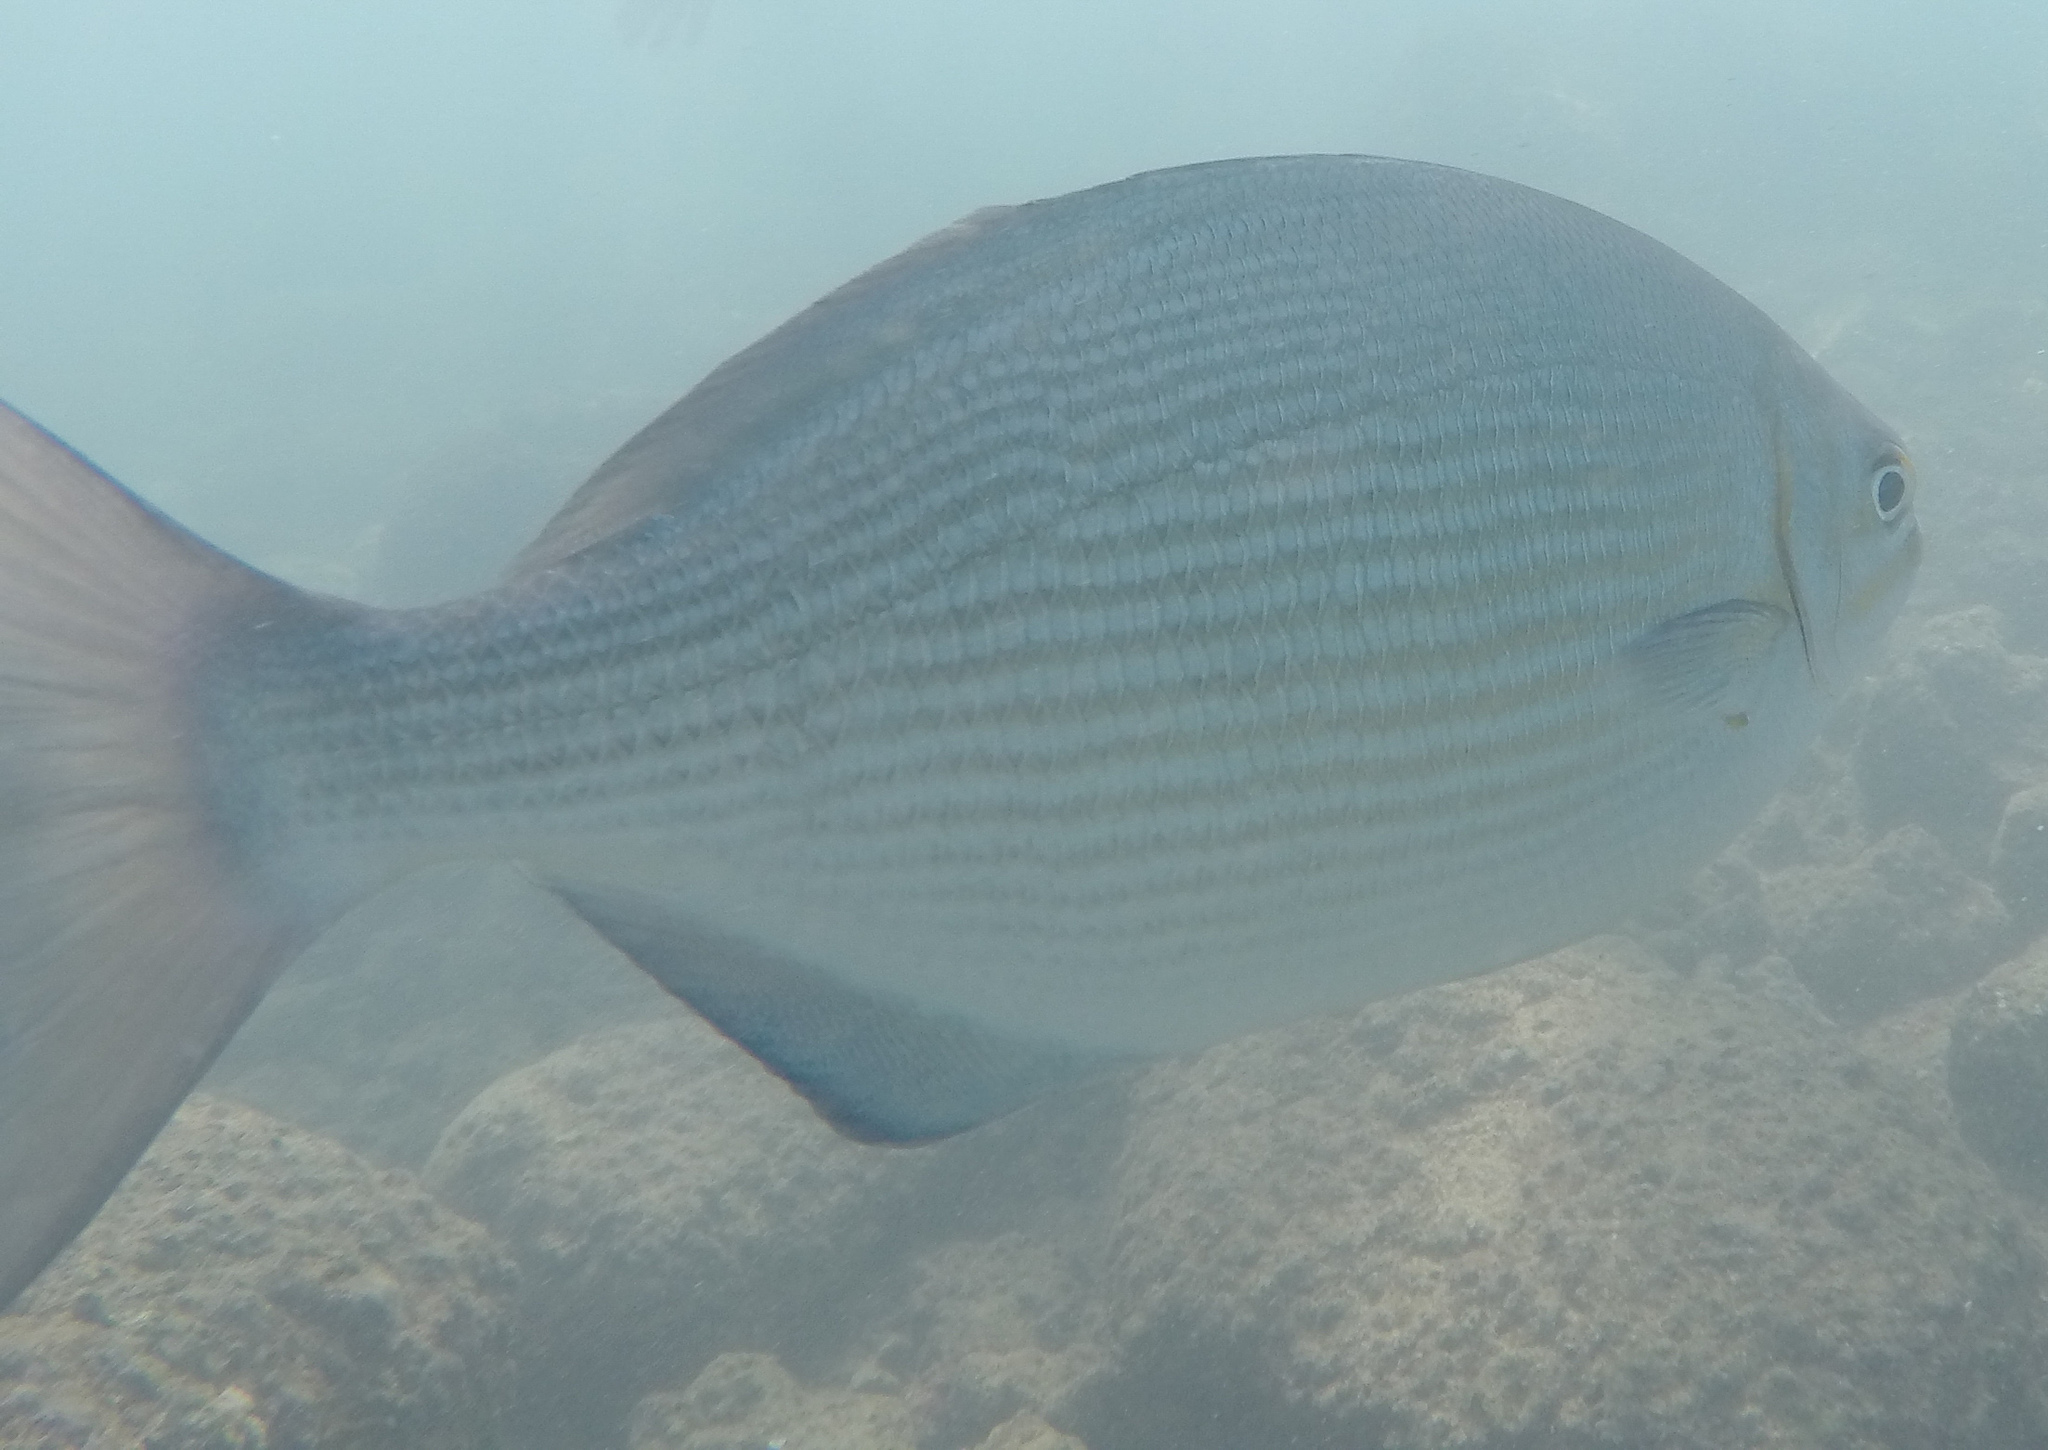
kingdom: Animalia
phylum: Chordata
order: Perciformes
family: Kyphosidae
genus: Kyphosus
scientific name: Kyphosus vaigiensis
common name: Brassy chub
